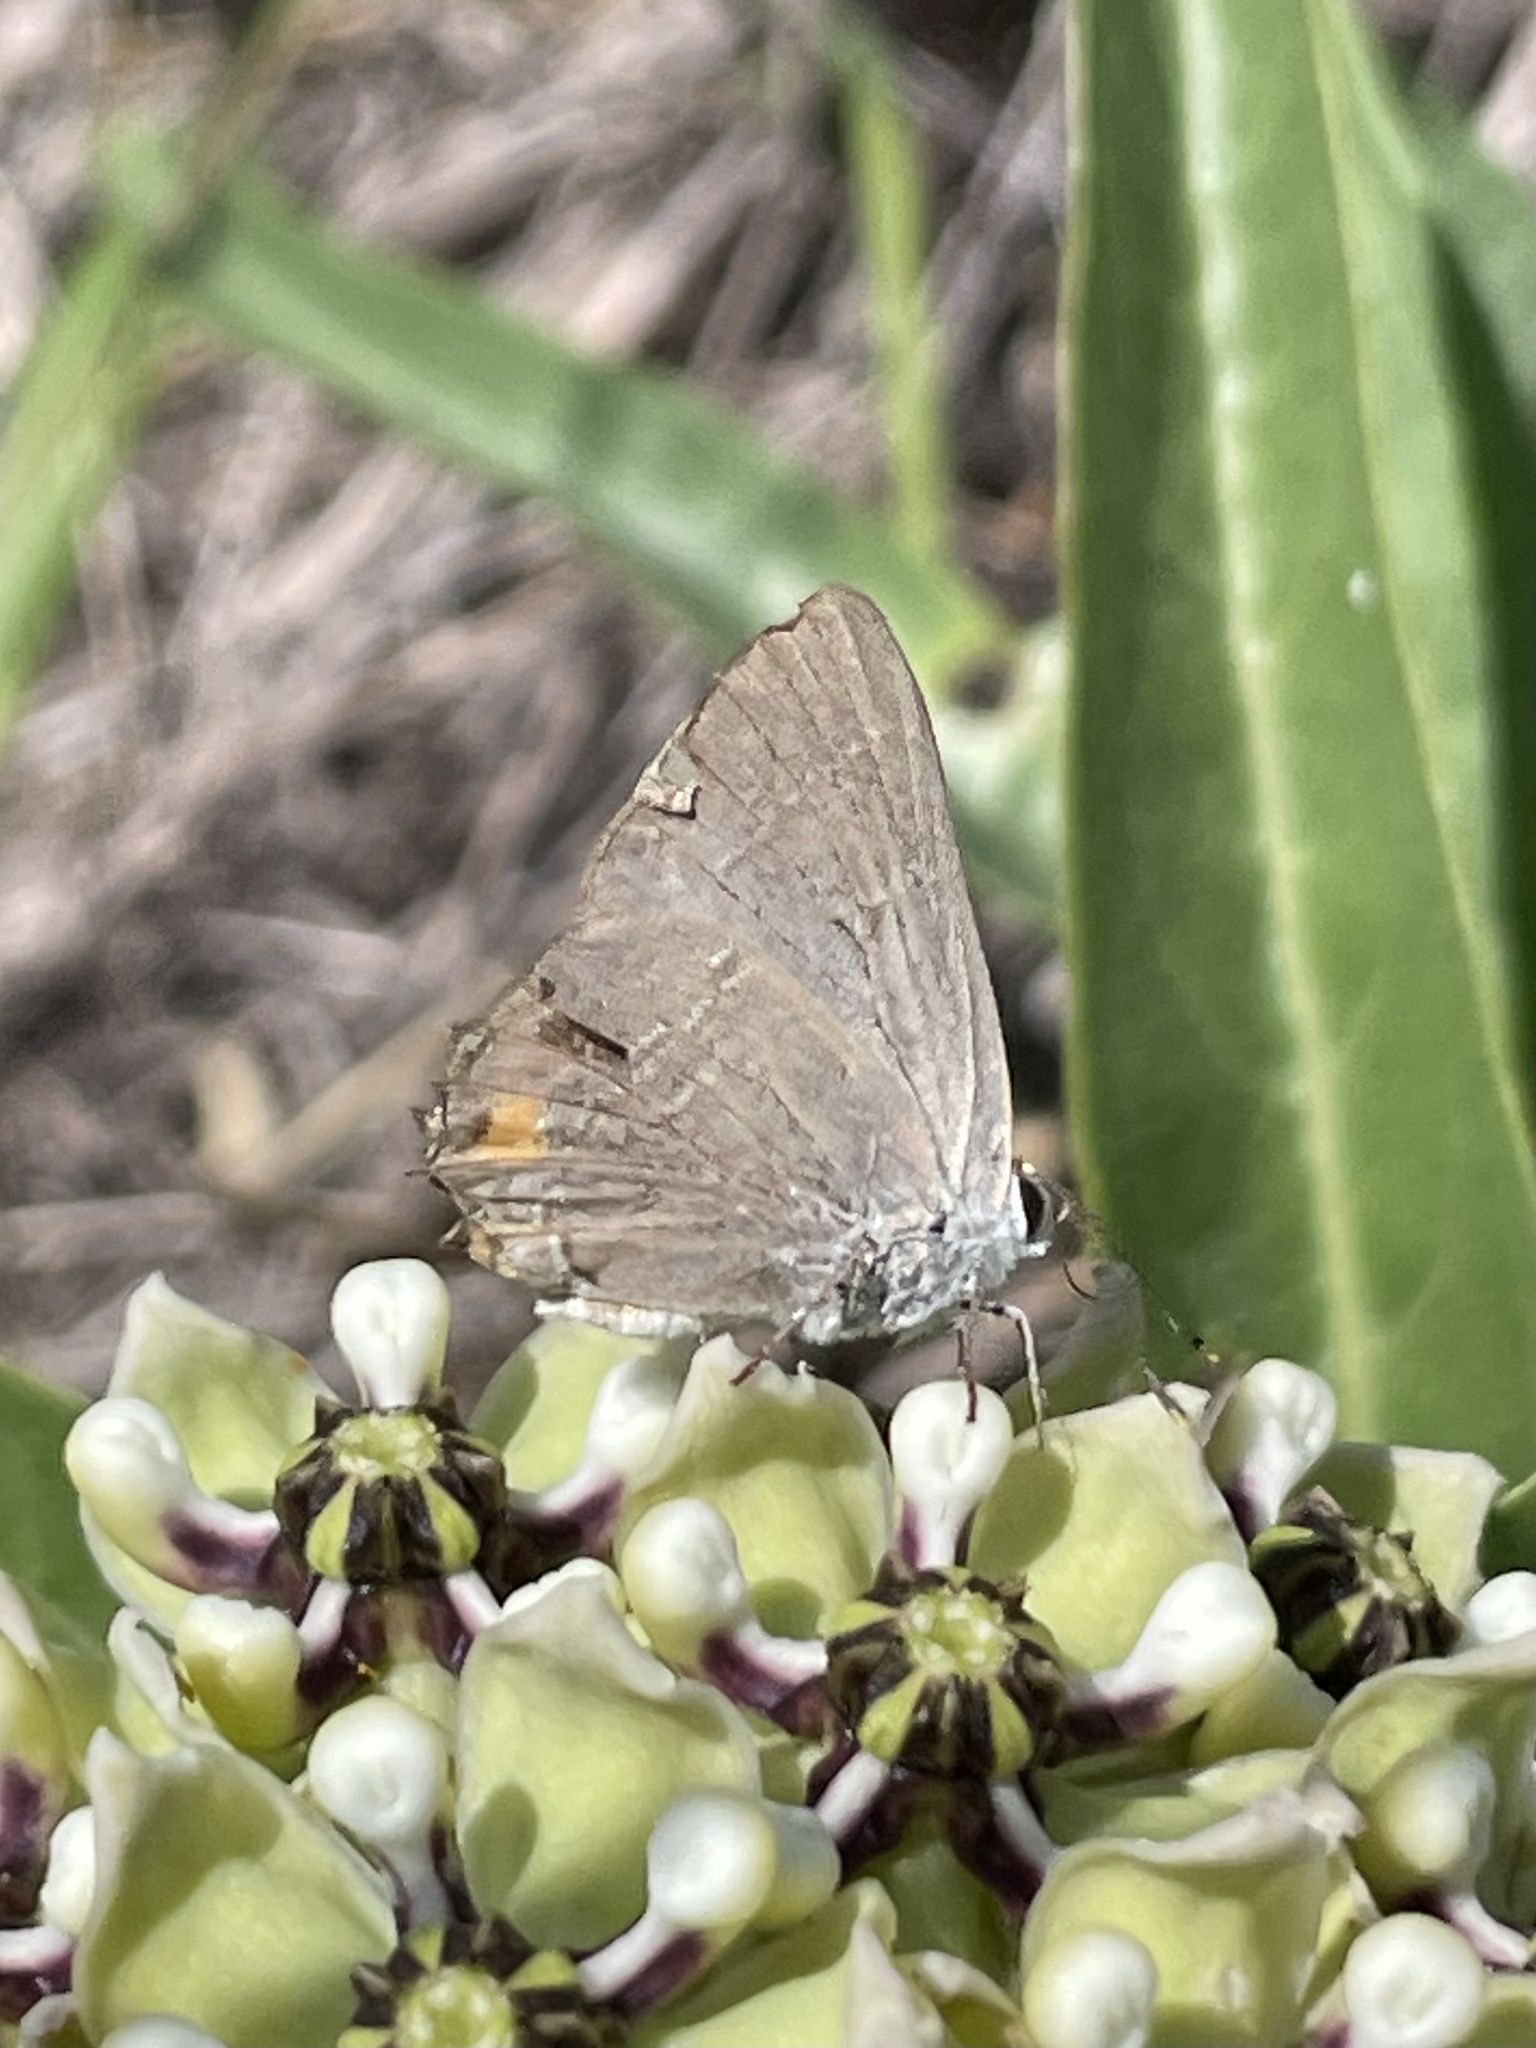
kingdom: Animalia
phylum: Arthropoda
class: Insecta
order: Lepidoptera
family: Lycaenidae
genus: Strymon
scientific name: Strymon melinus
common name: Gray hairstreak
